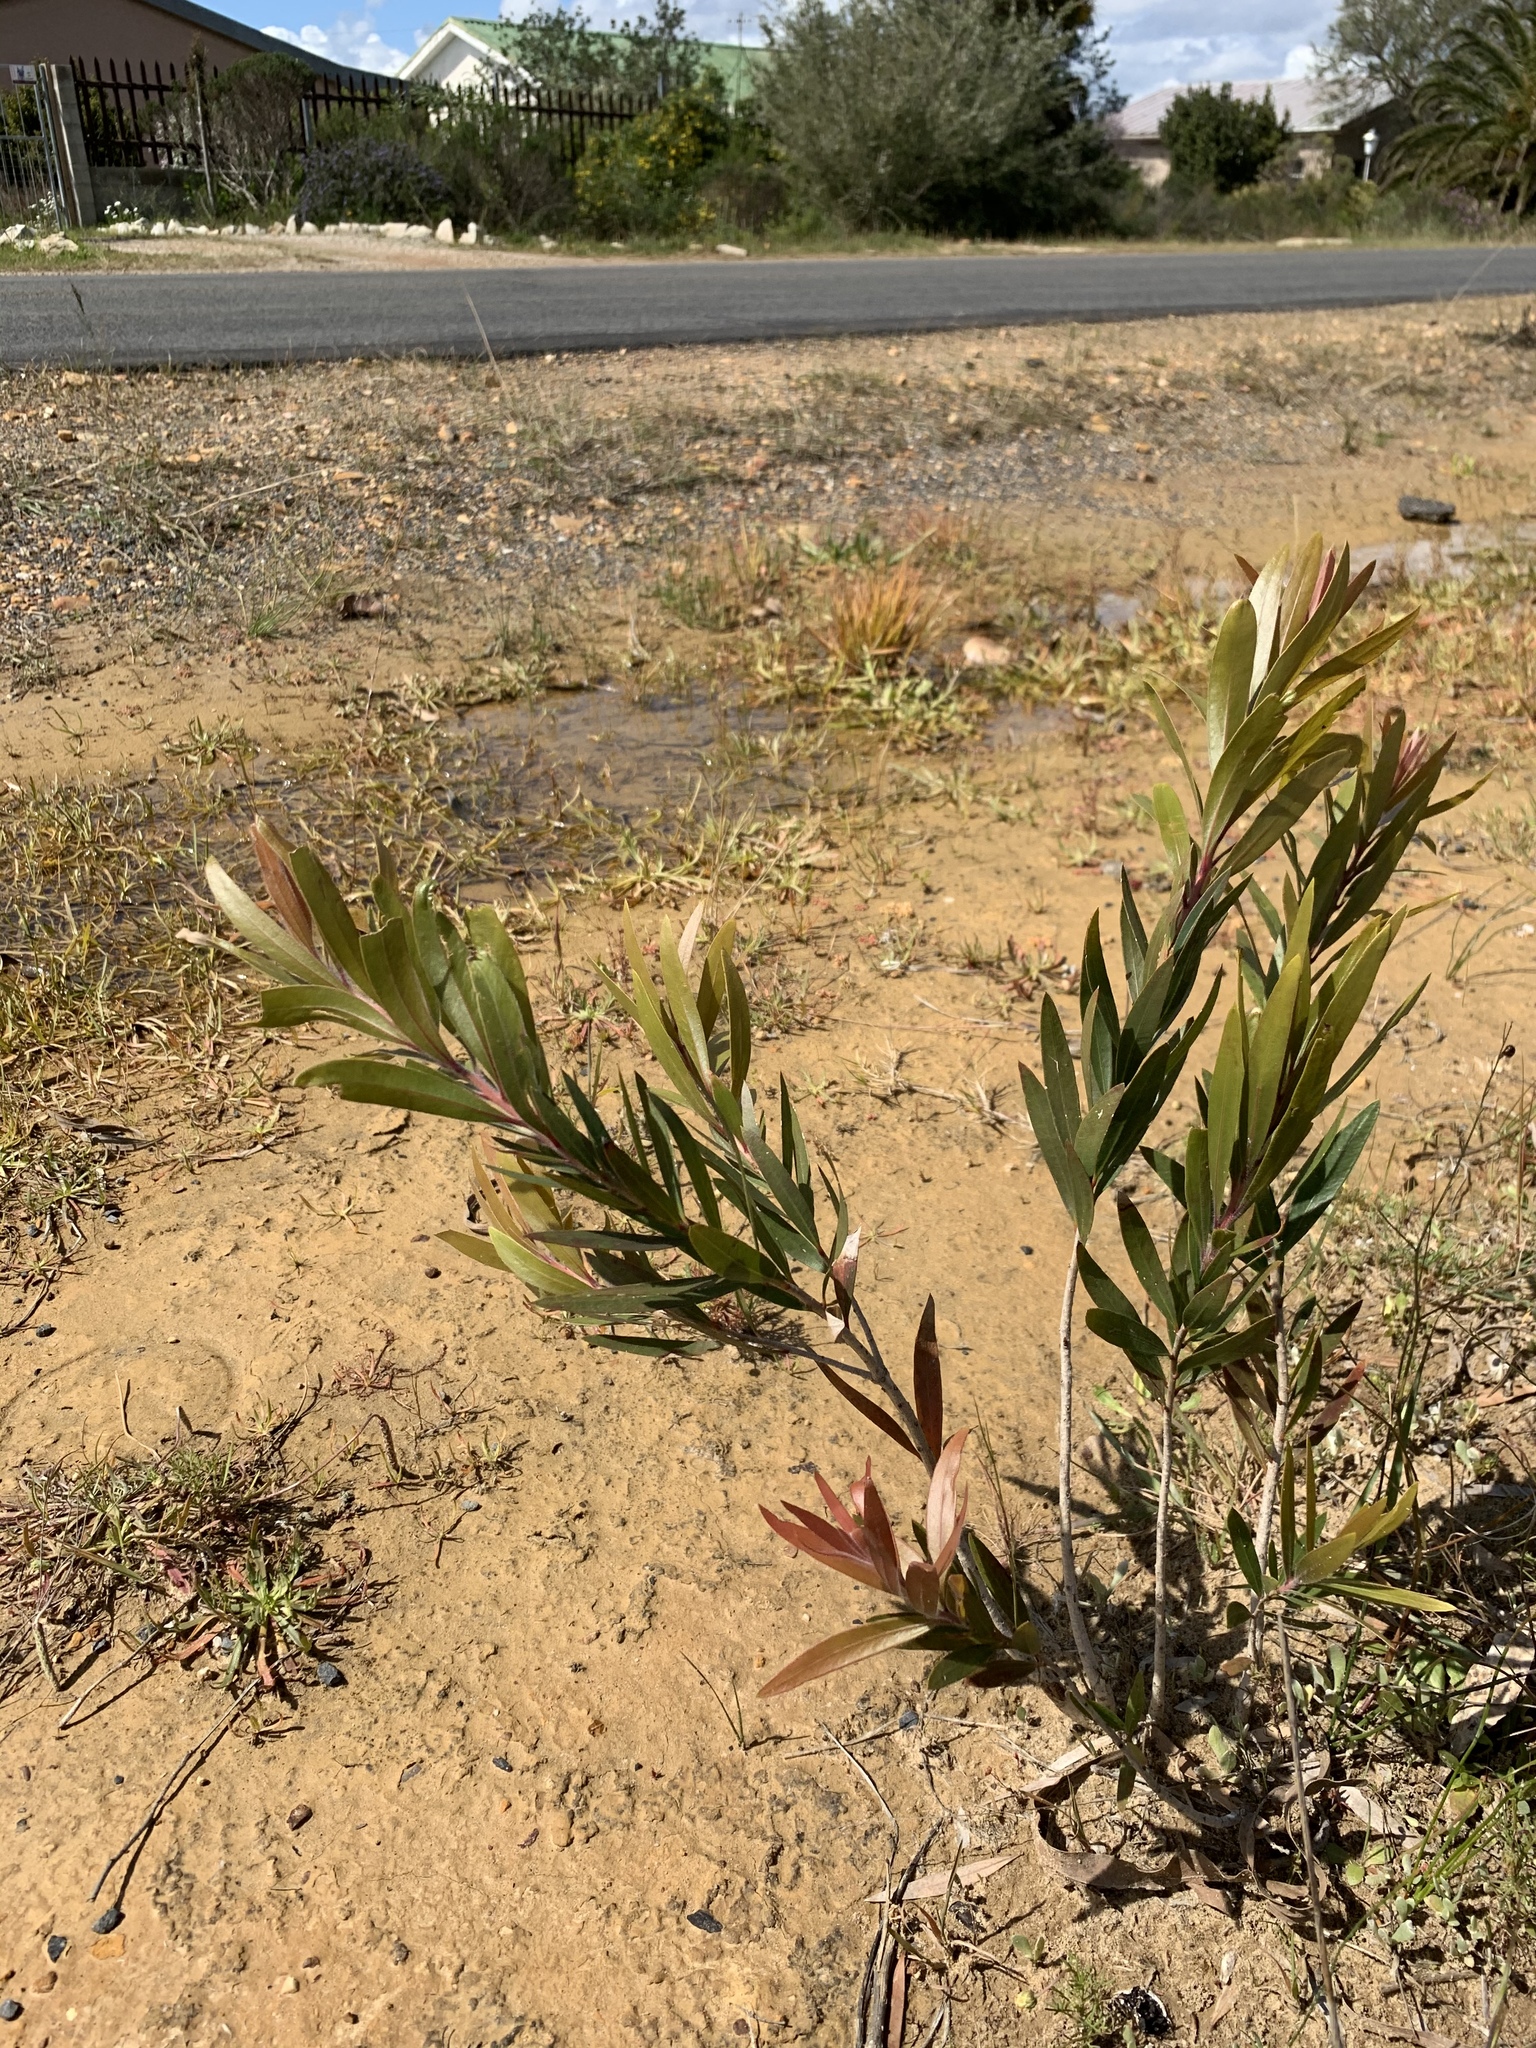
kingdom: Plantae
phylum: Tracheophyta
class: Magnoliopsida
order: Myrtales
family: Myrtaceae
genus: Callistemon
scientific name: Callistemon viminalis
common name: Drooping bottlebrush
